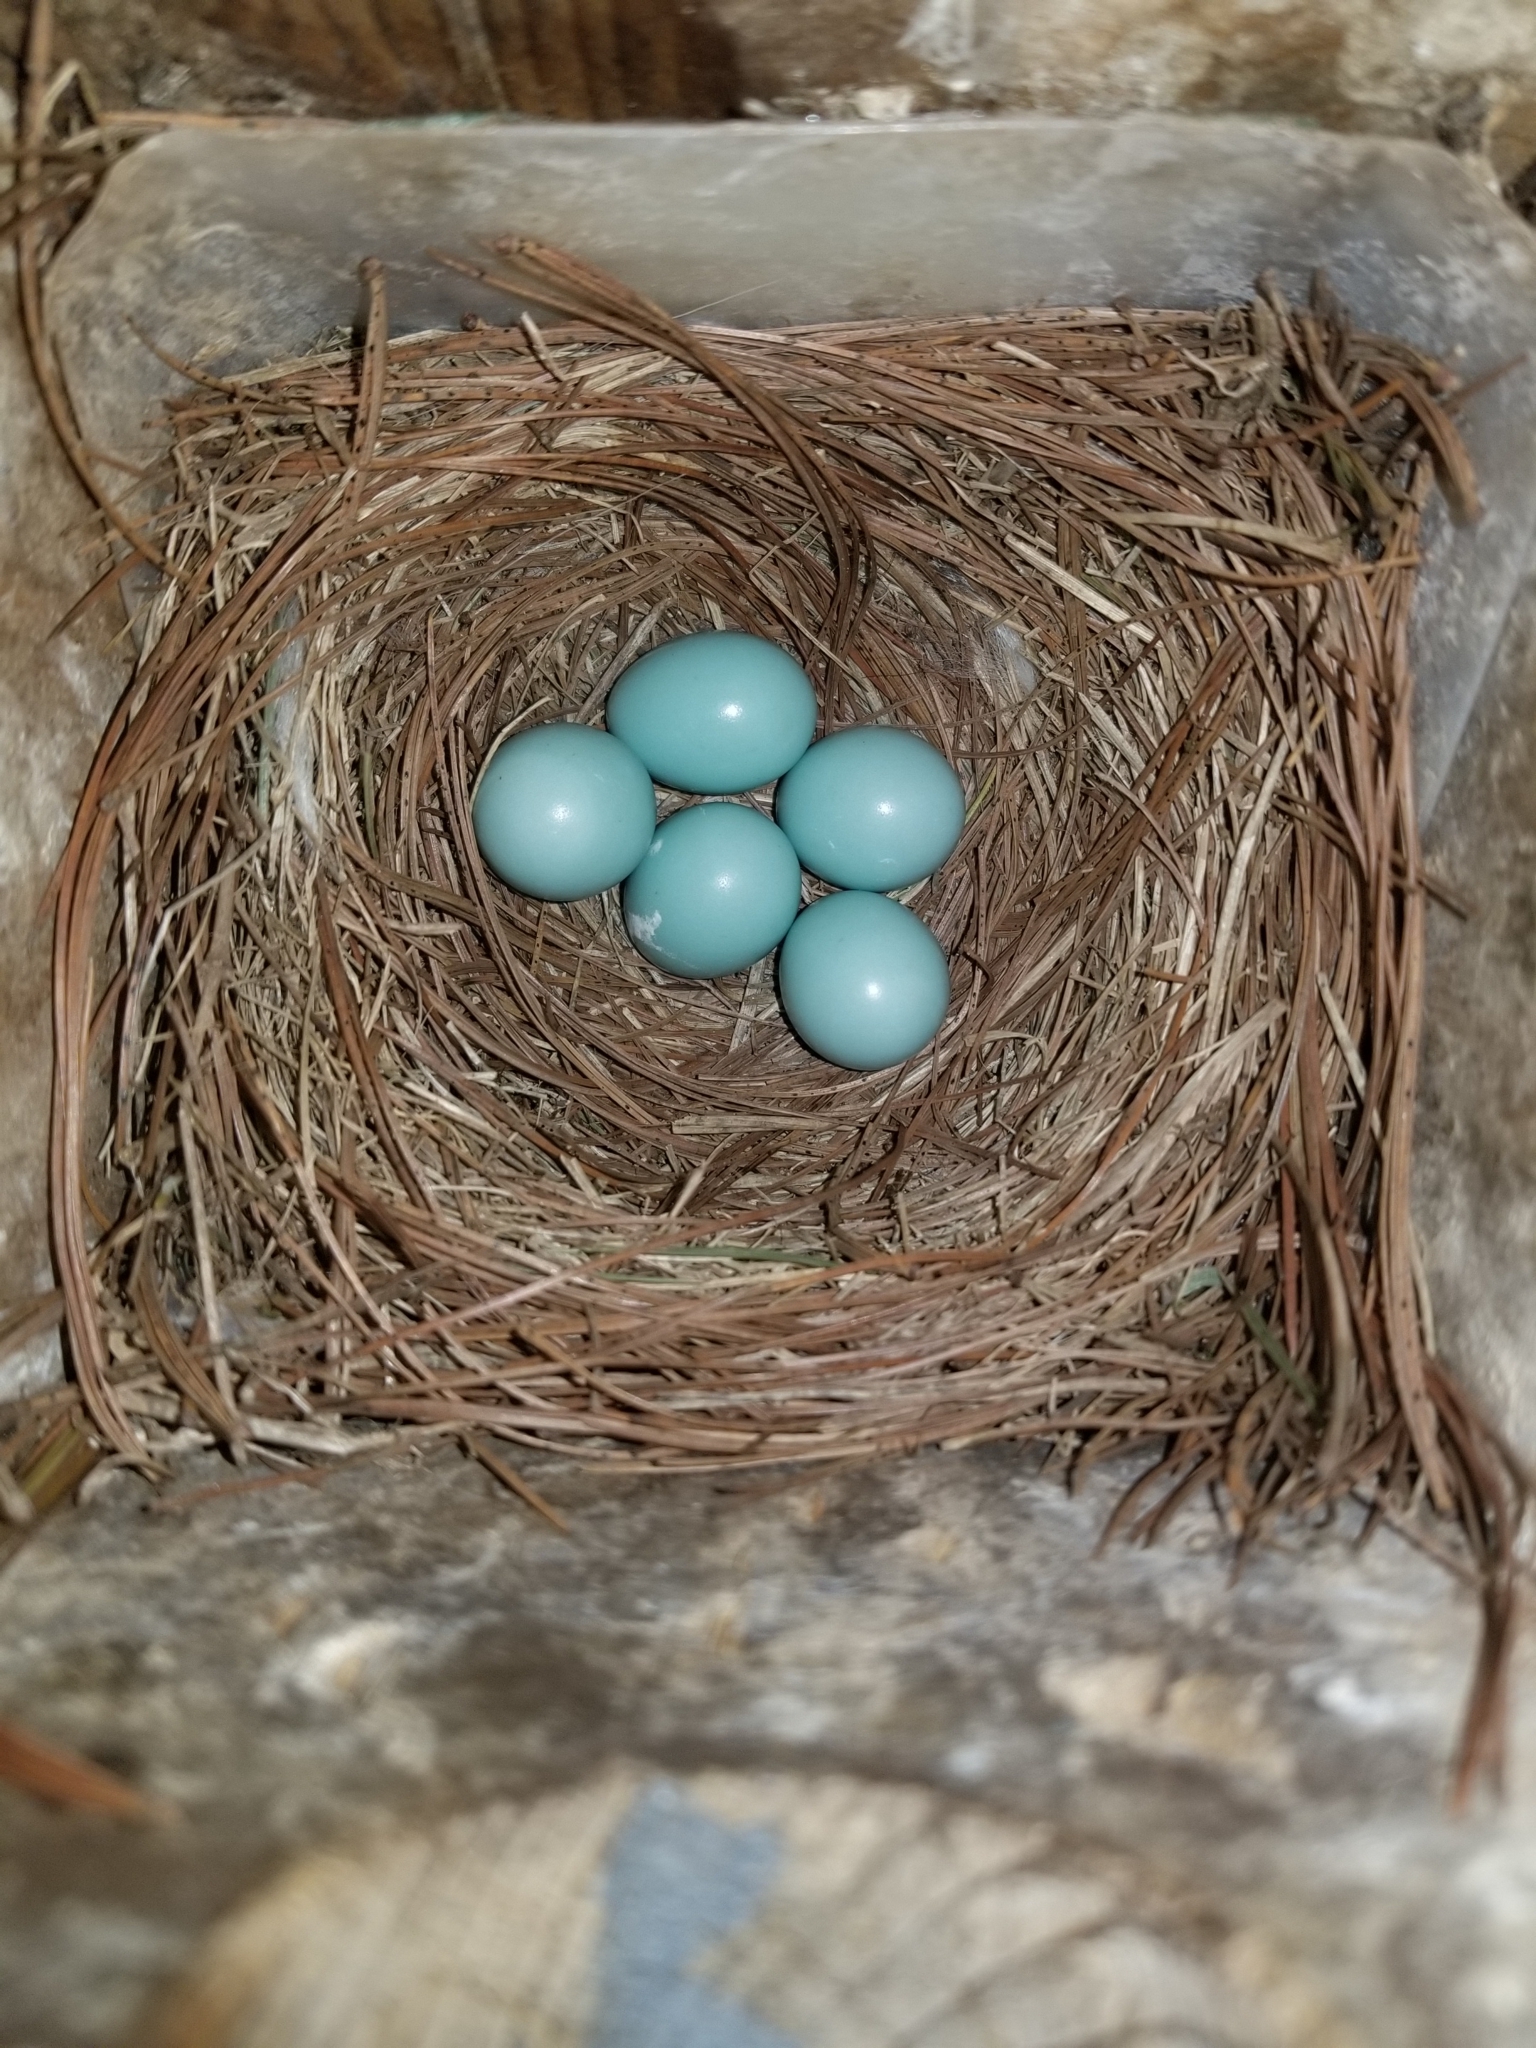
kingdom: Animalia
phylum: Chordata
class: Aves
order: Passeriformes
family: Turdidae
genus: Sialia
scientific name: Sialia sialis
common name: Eastern bluebird
